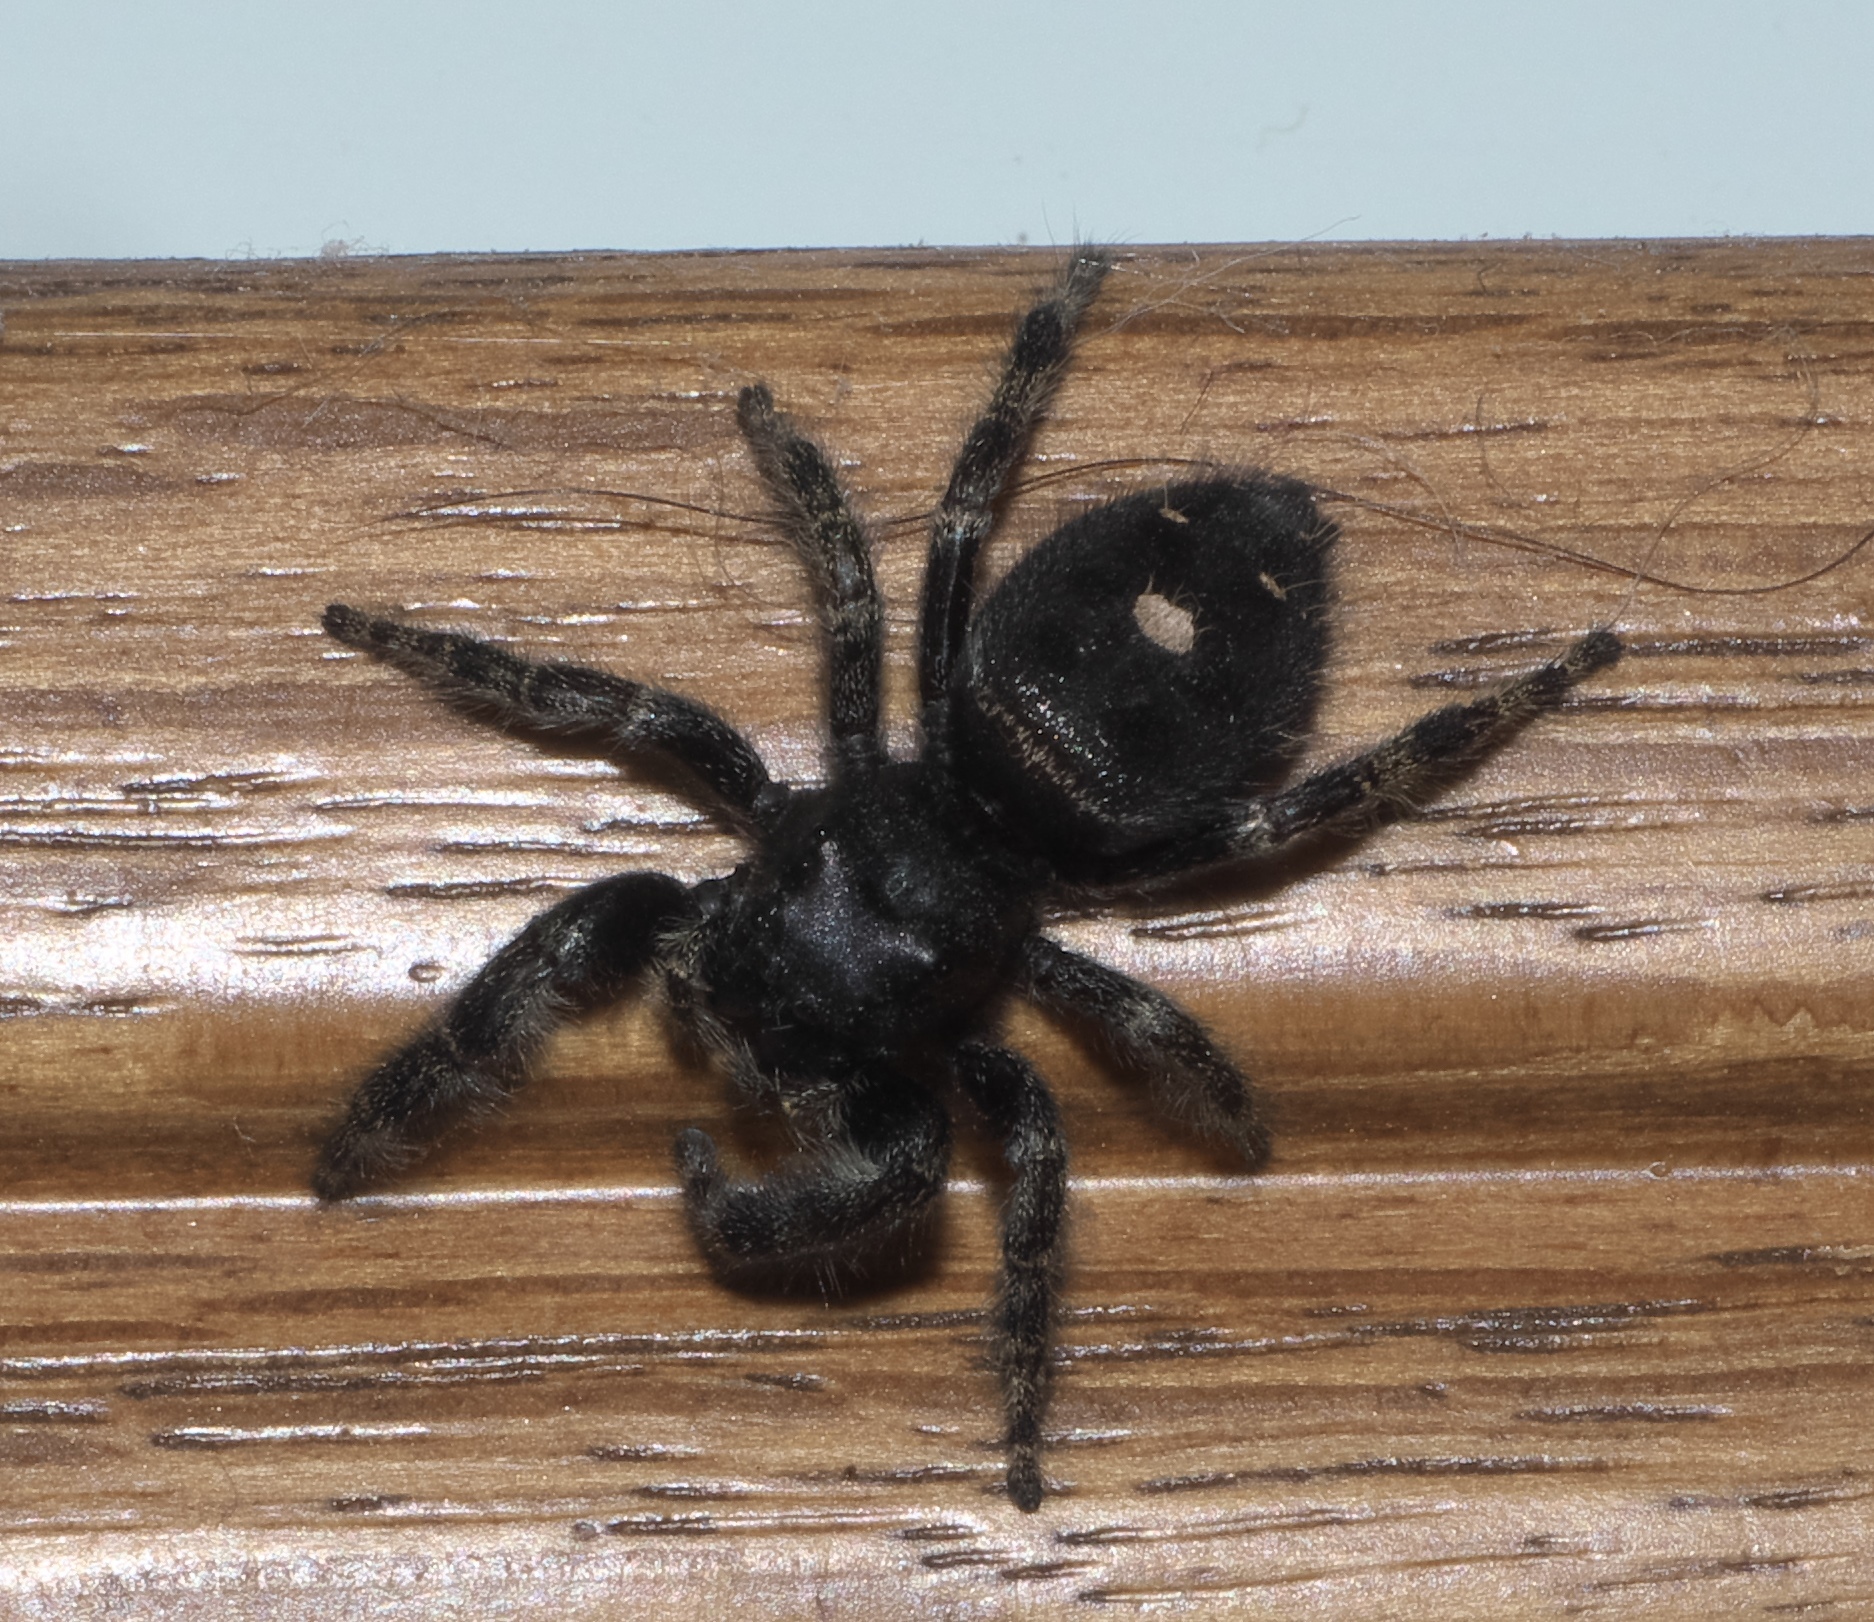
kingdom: Animalia
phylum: Arthropoda
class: Arachnida
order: Araneae
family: Salticidae
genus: Phidippus
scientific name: Phidippus audax
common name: Bold jumper
